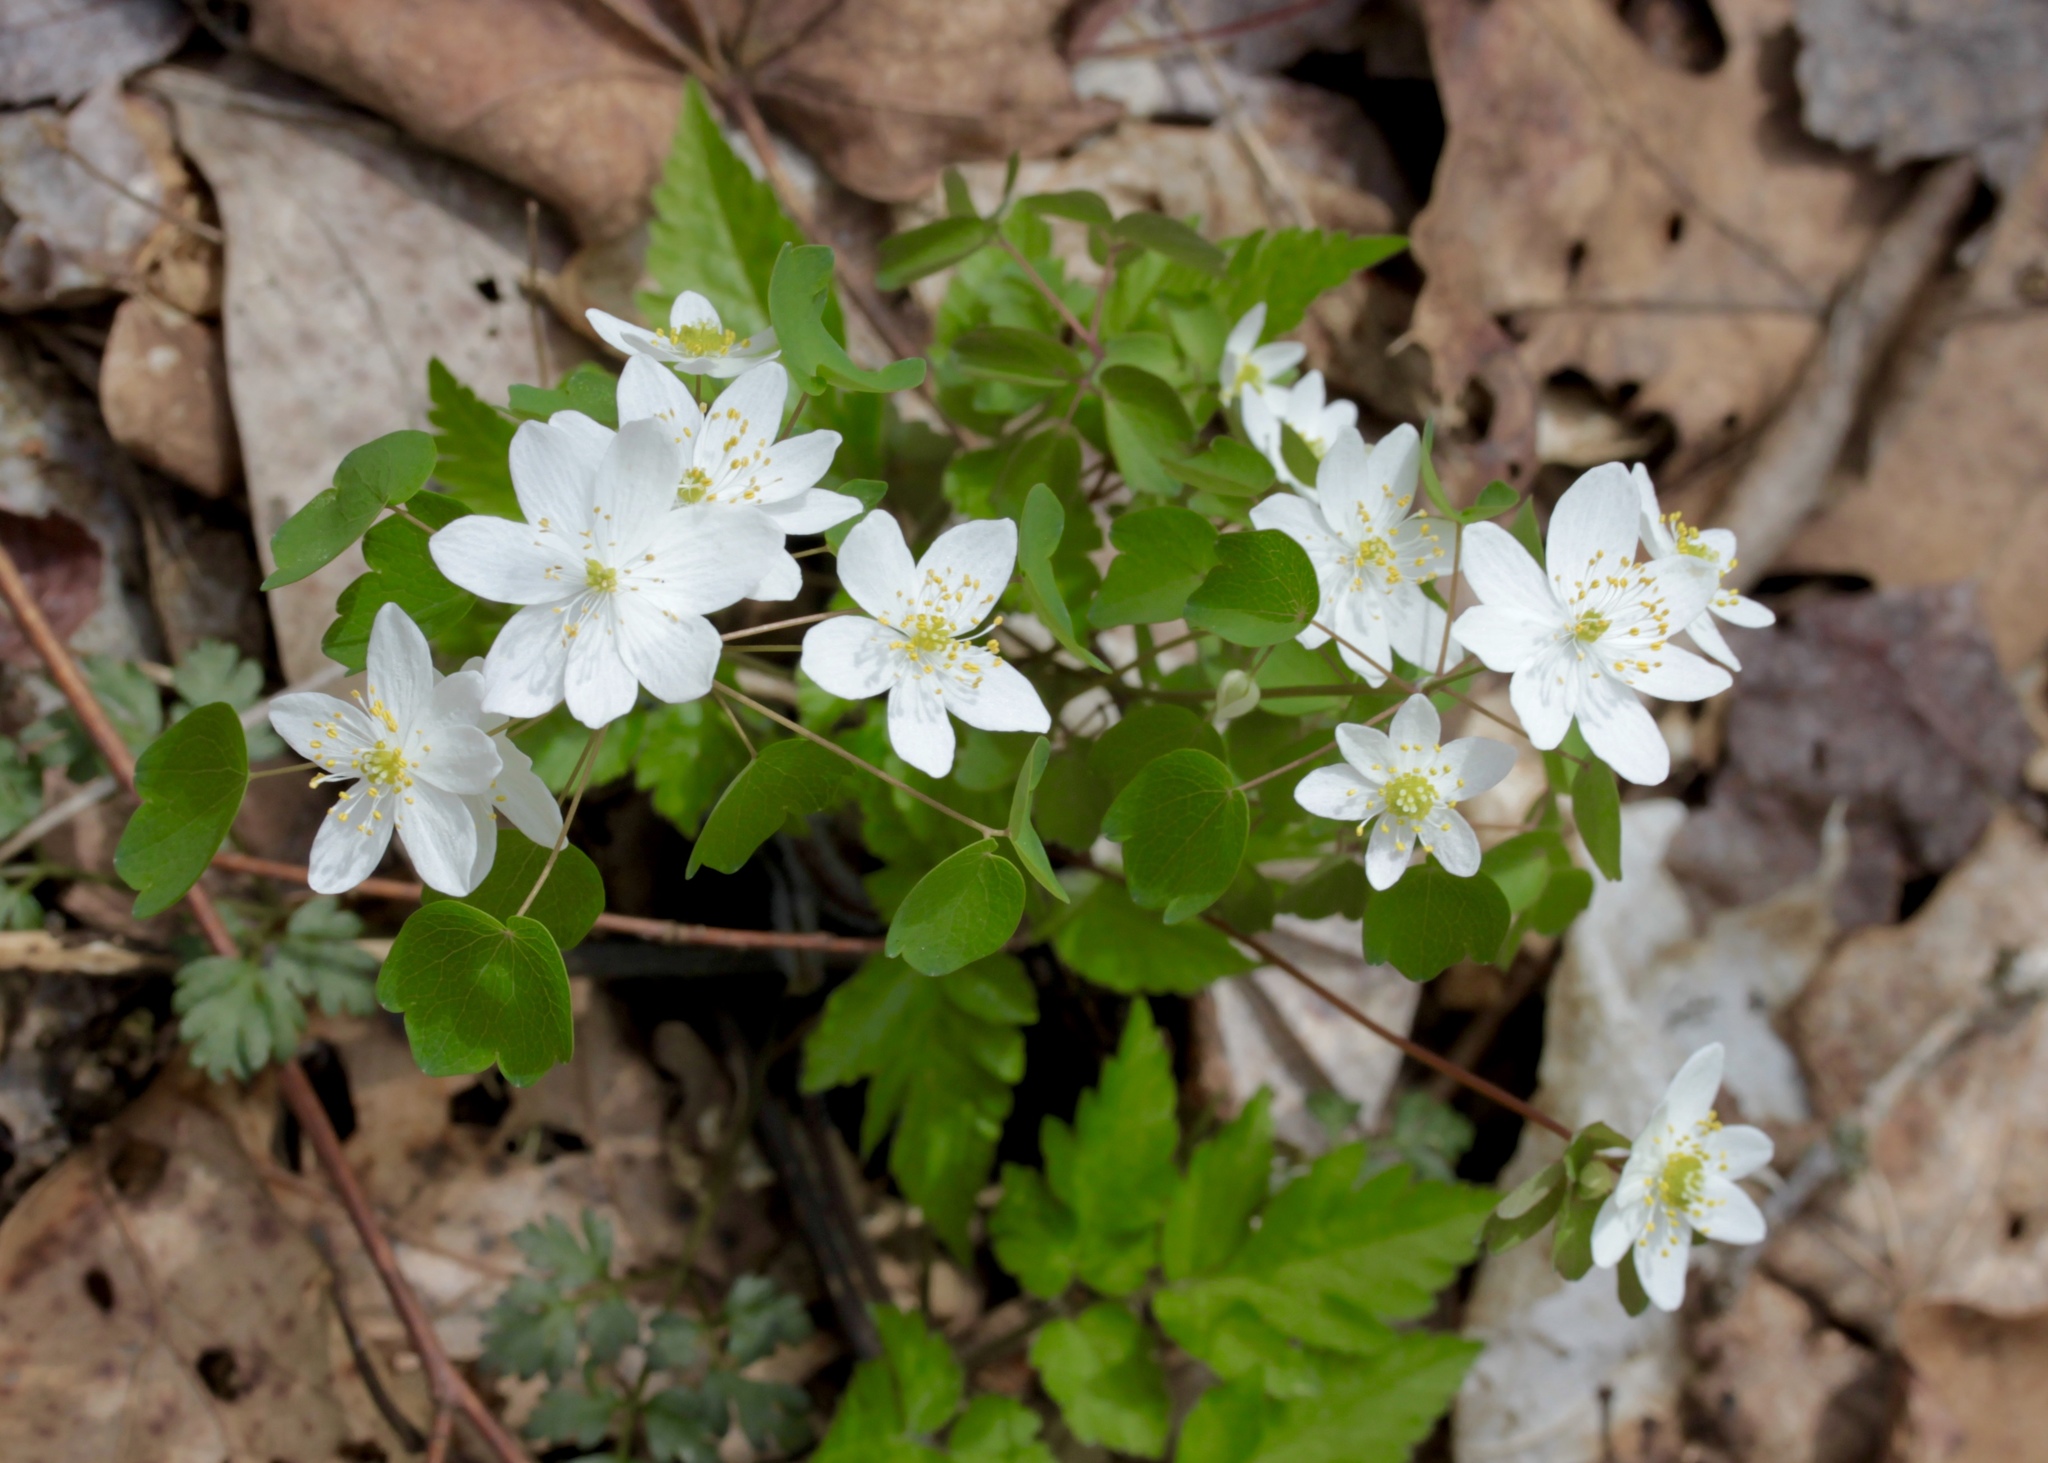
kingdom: Plantae
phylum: Tracheophyta
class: Magnoliopsida
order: Ranunculales
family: Ranunculaceae
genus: Thalictrum
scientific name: Thalictrum thalictroides
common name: Rue-anemone
